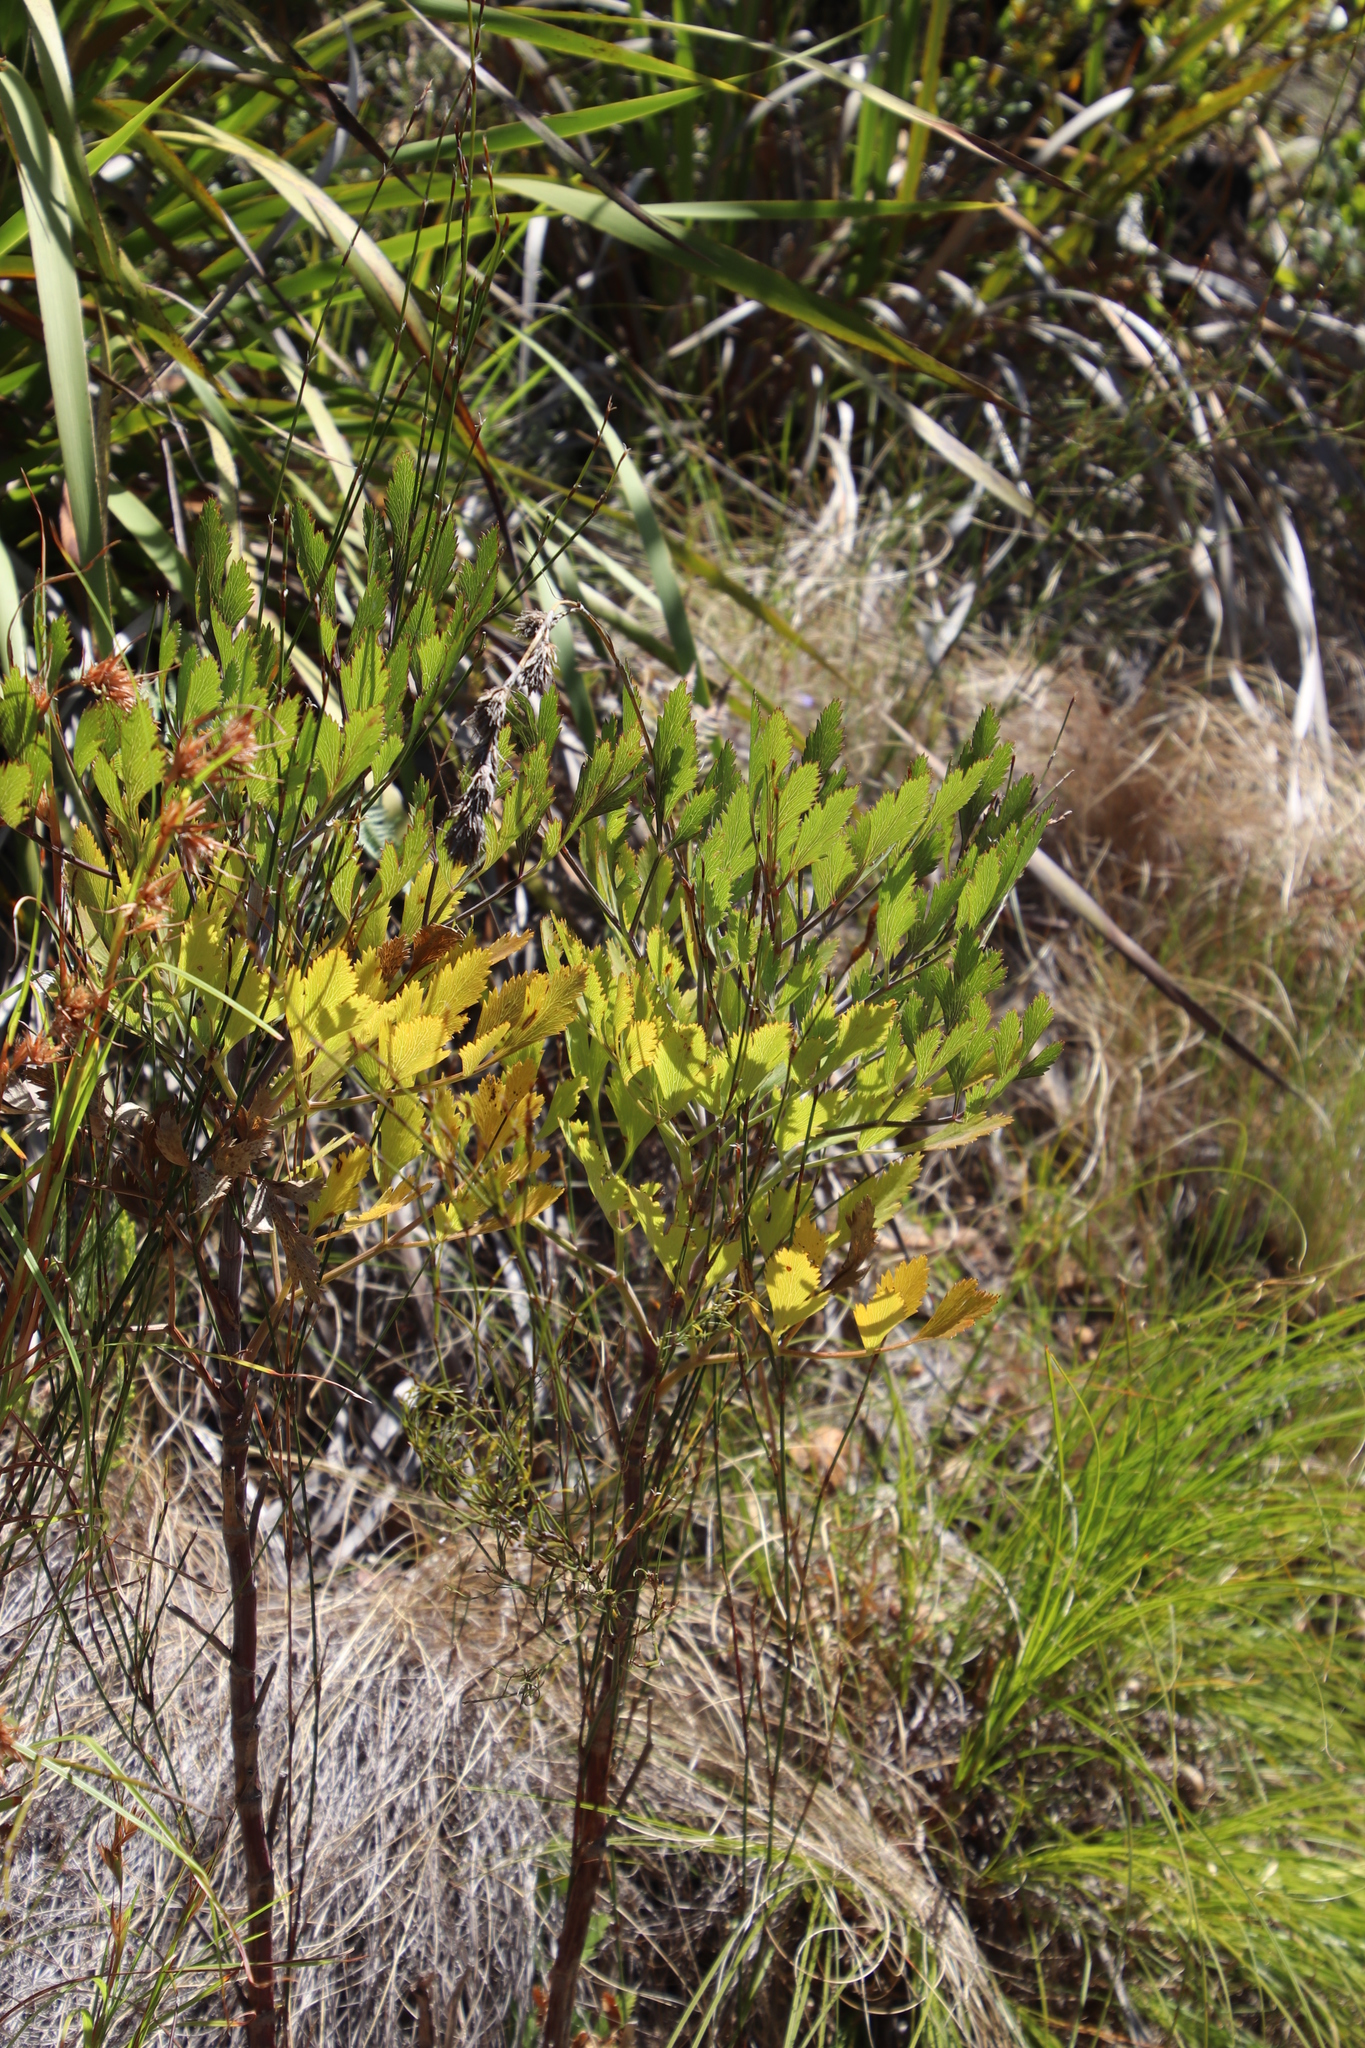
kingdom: Plantae
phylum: Tracheophyta
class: Magnoliopsida
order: Apiales
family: Apiaceae
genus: Notobubon
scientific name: Notobubon galbanum
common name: Blisterbush
